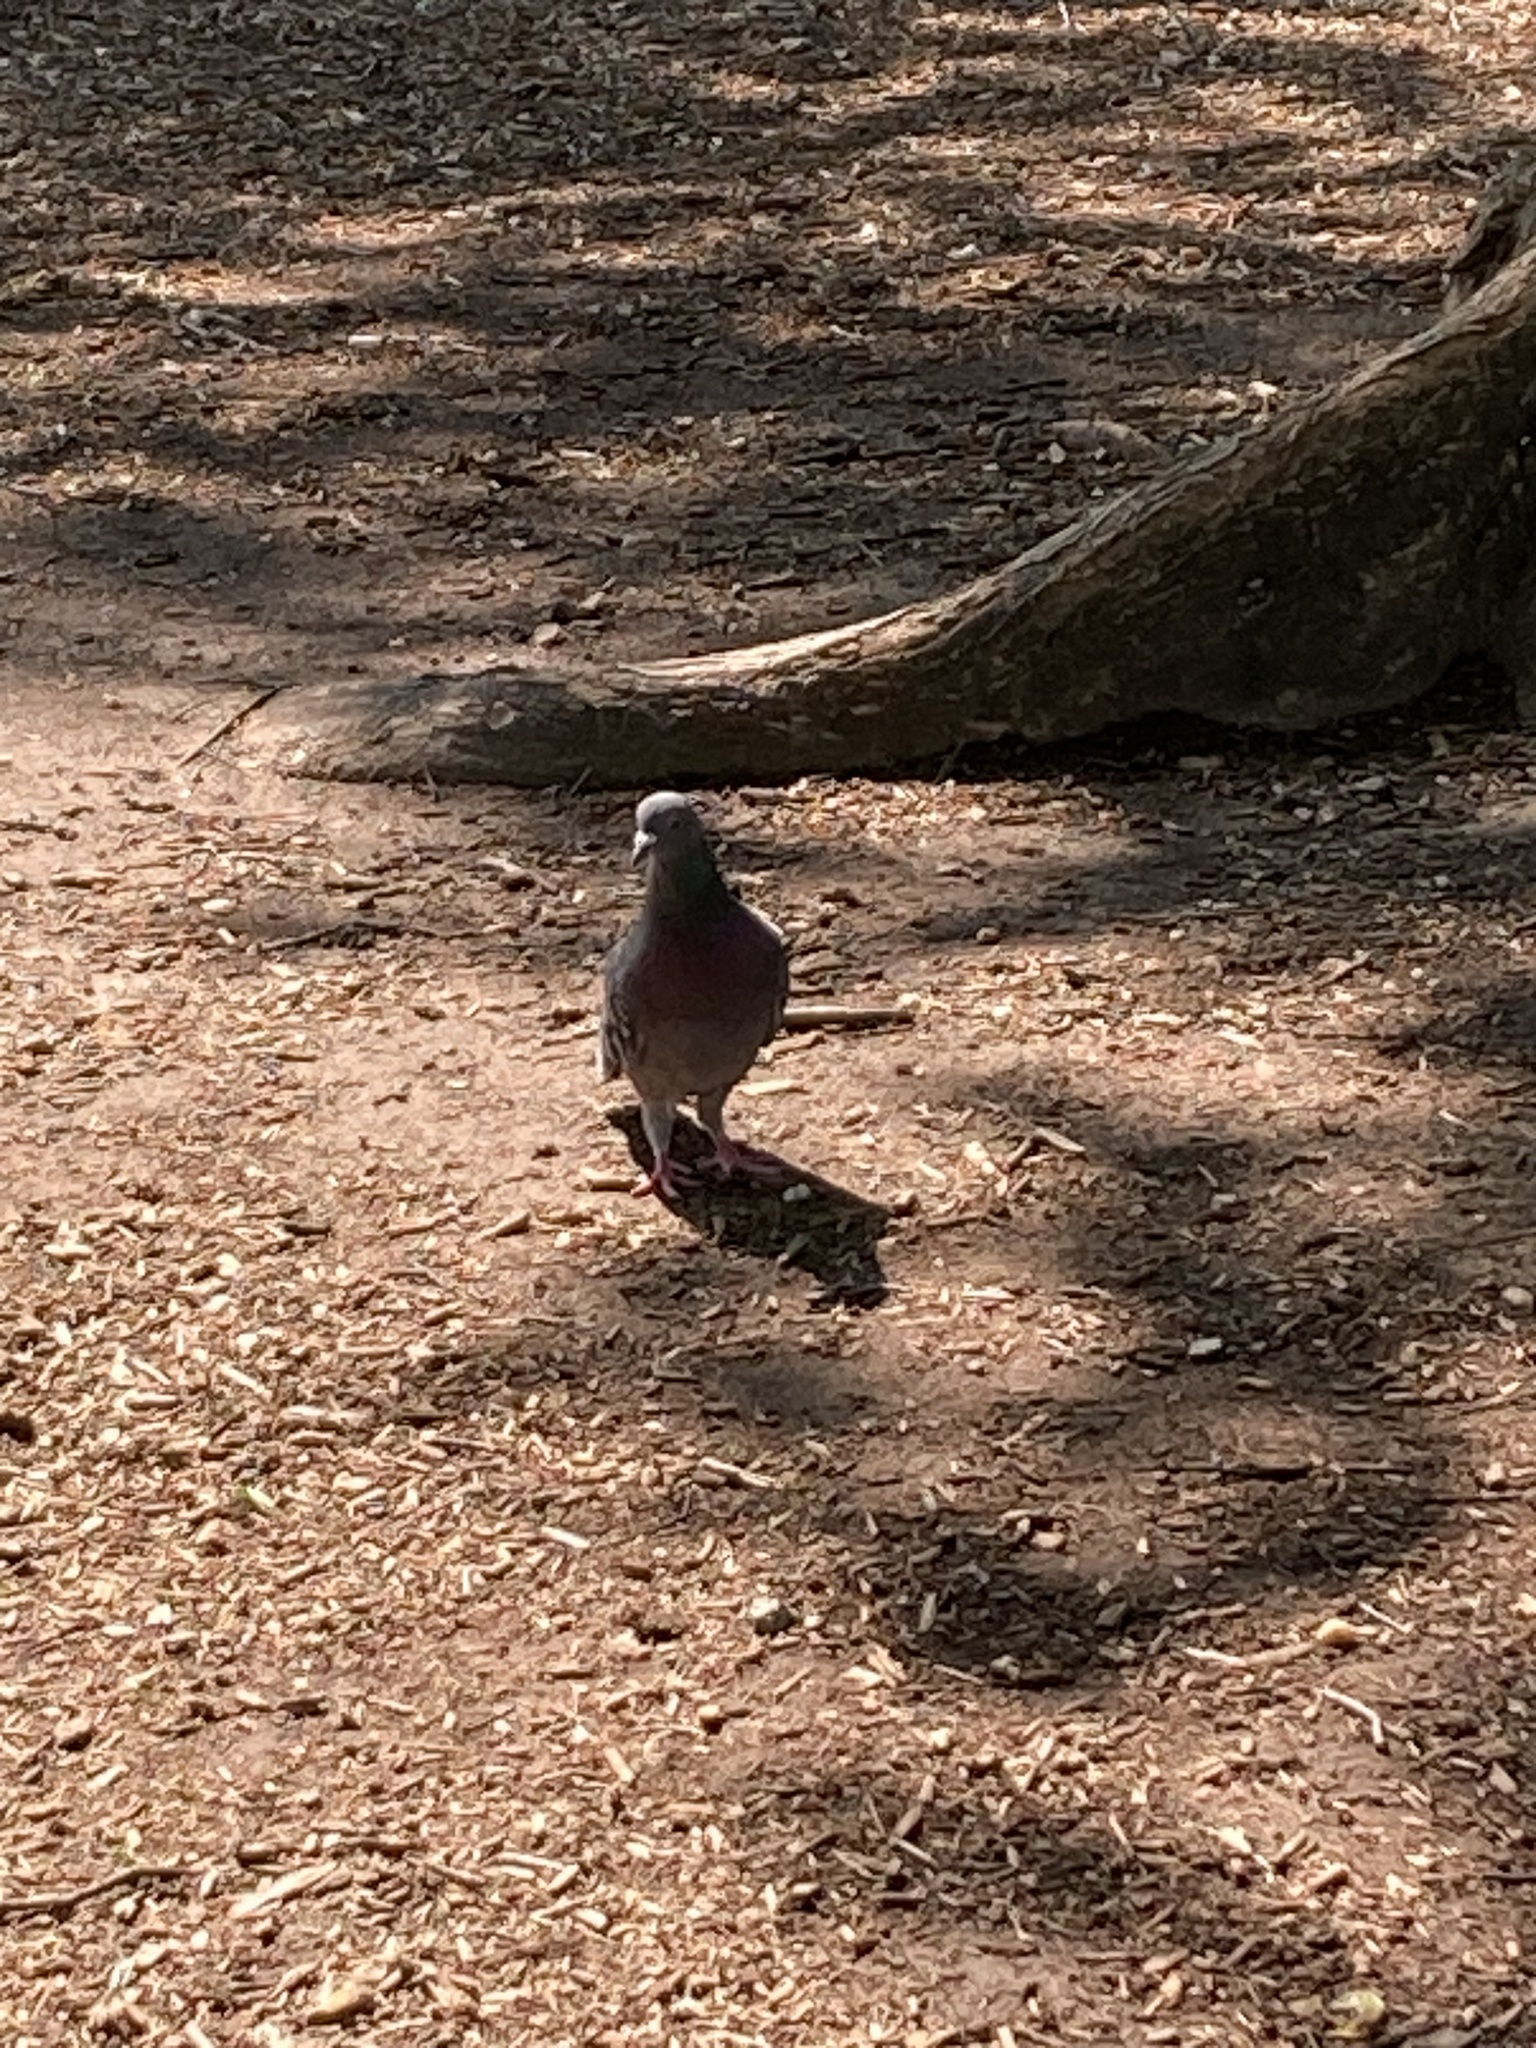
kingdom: Animalia
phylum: Chordata
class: Aves
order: Columbiformes
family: Columbidae
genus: Columba
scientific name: Columba livia
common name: Rock pigeon
